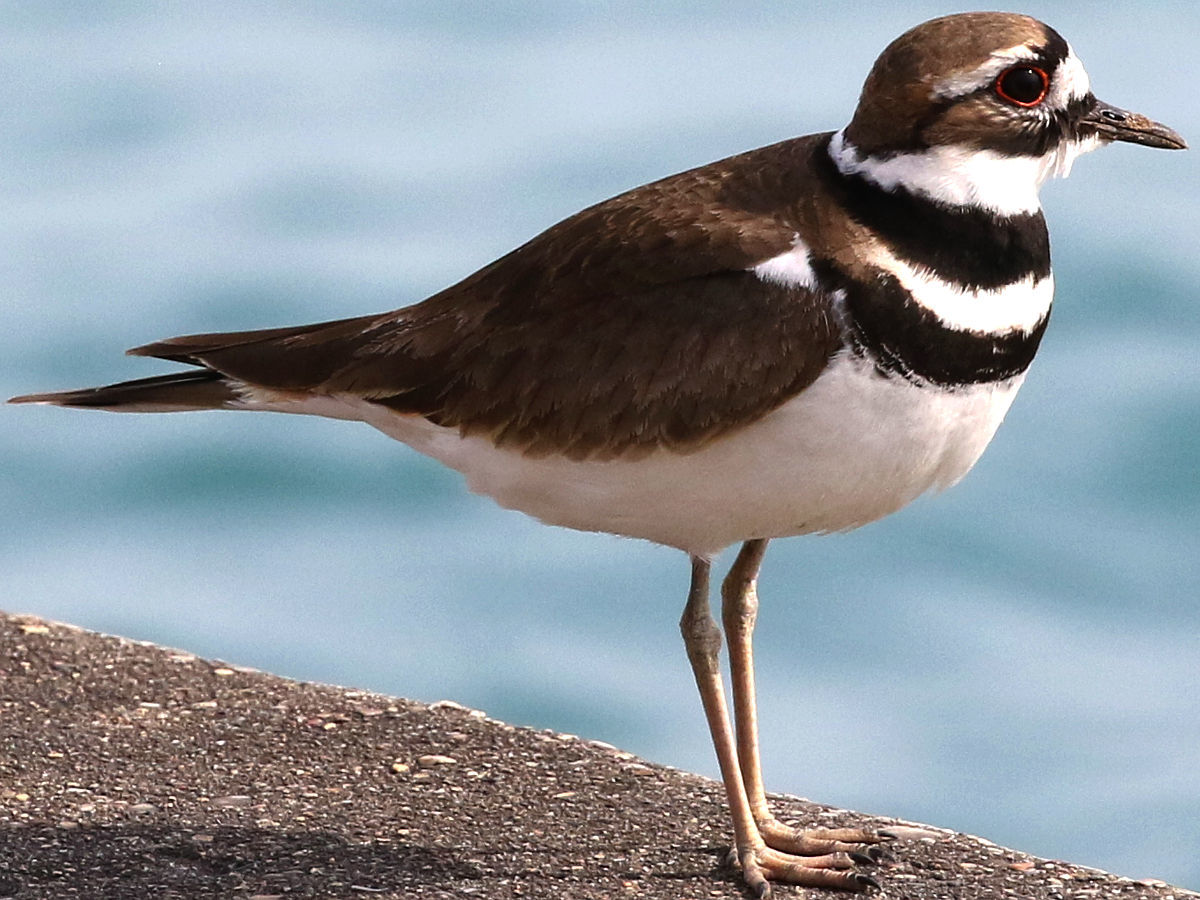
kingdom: Animalia
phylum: Chordata
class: Aves
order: Charadriiformes
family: Charadriidae
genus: Charadrius
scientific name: Charadrius vociferus
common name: Killdeer
